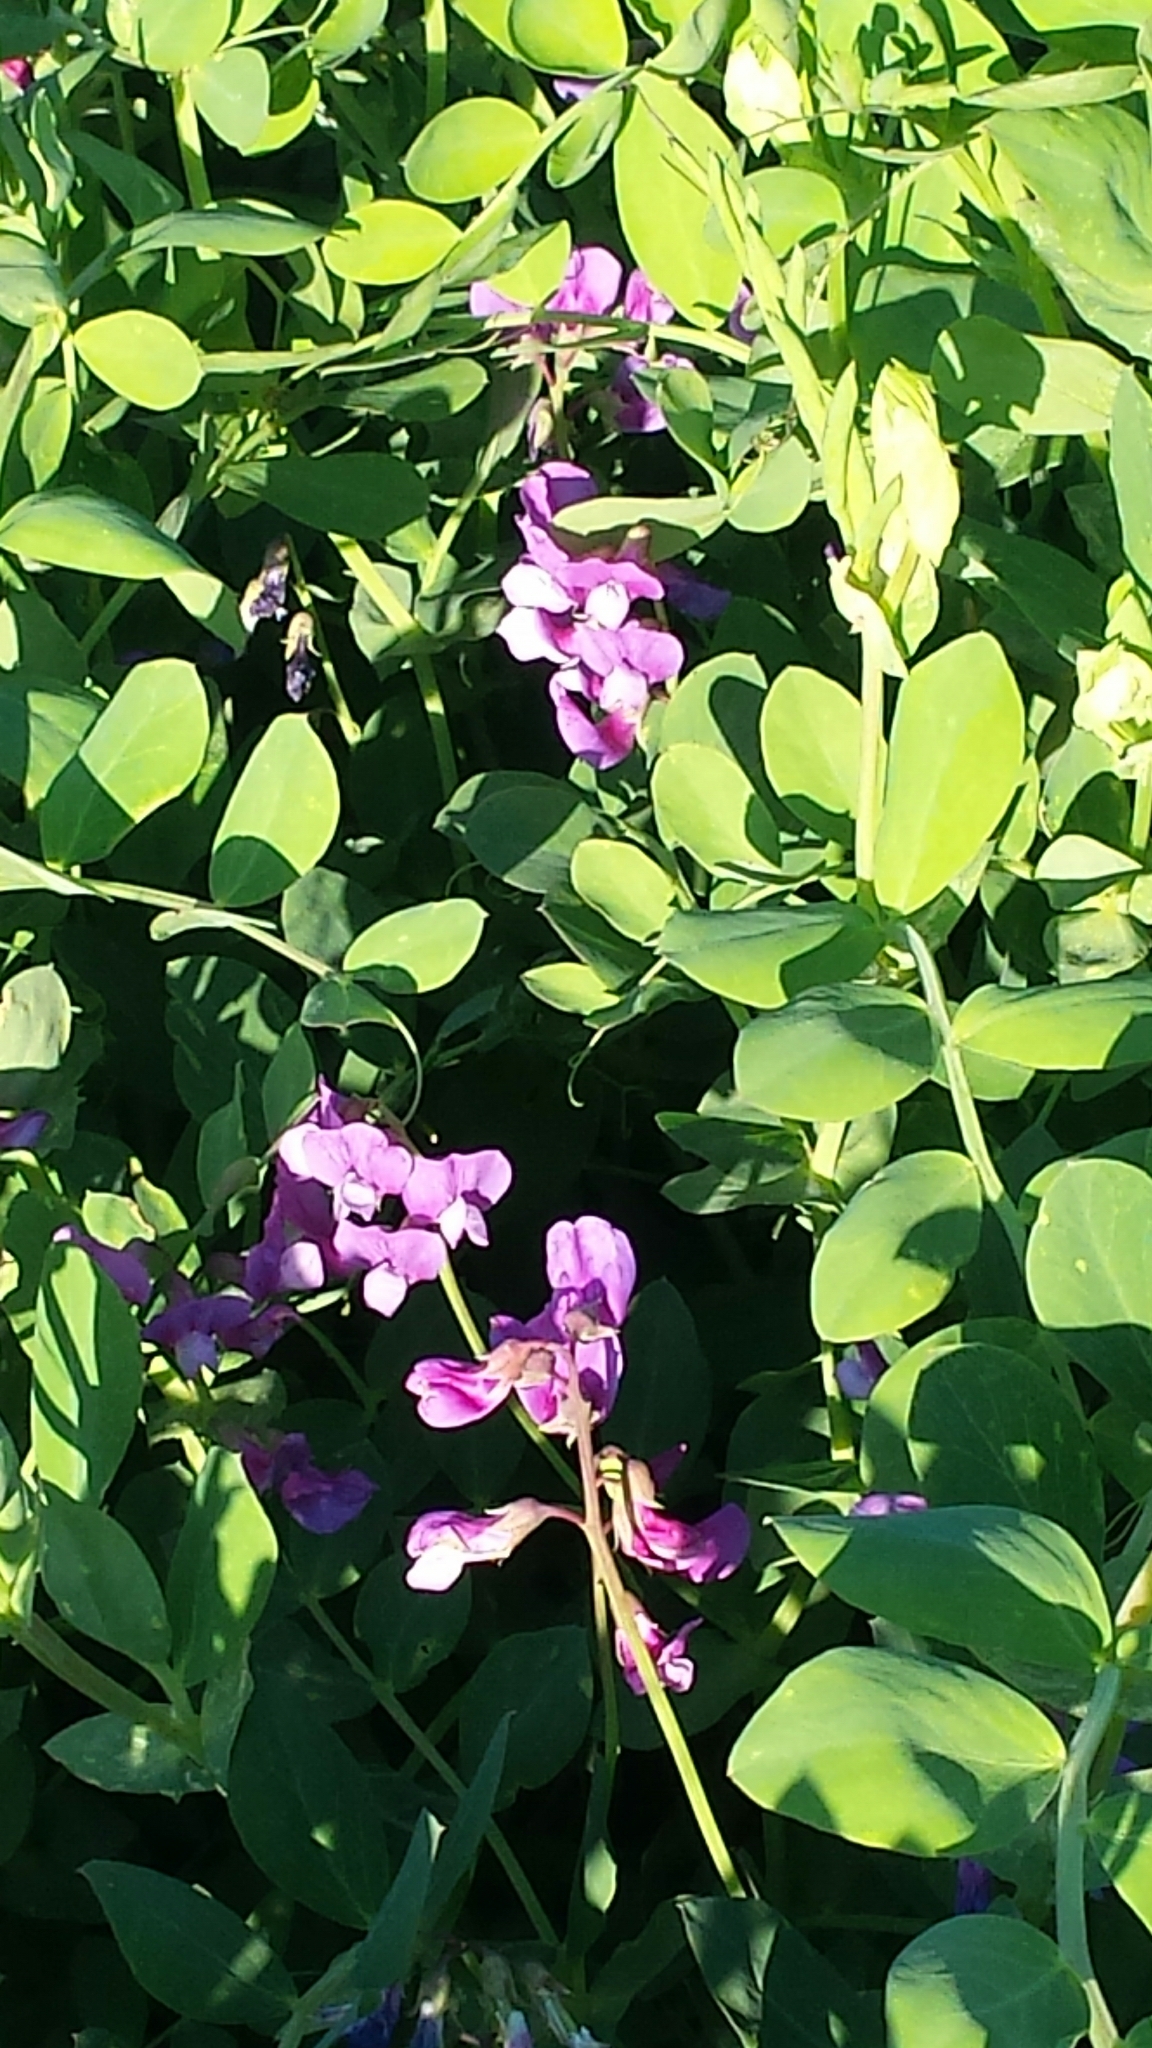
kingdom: Plantae
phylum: Tracheophyta
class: Magnoliopsida
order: Fabales
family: Fabaceae
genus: Lathyrus
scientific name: Lathyrus japonicus
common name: Sea pea
